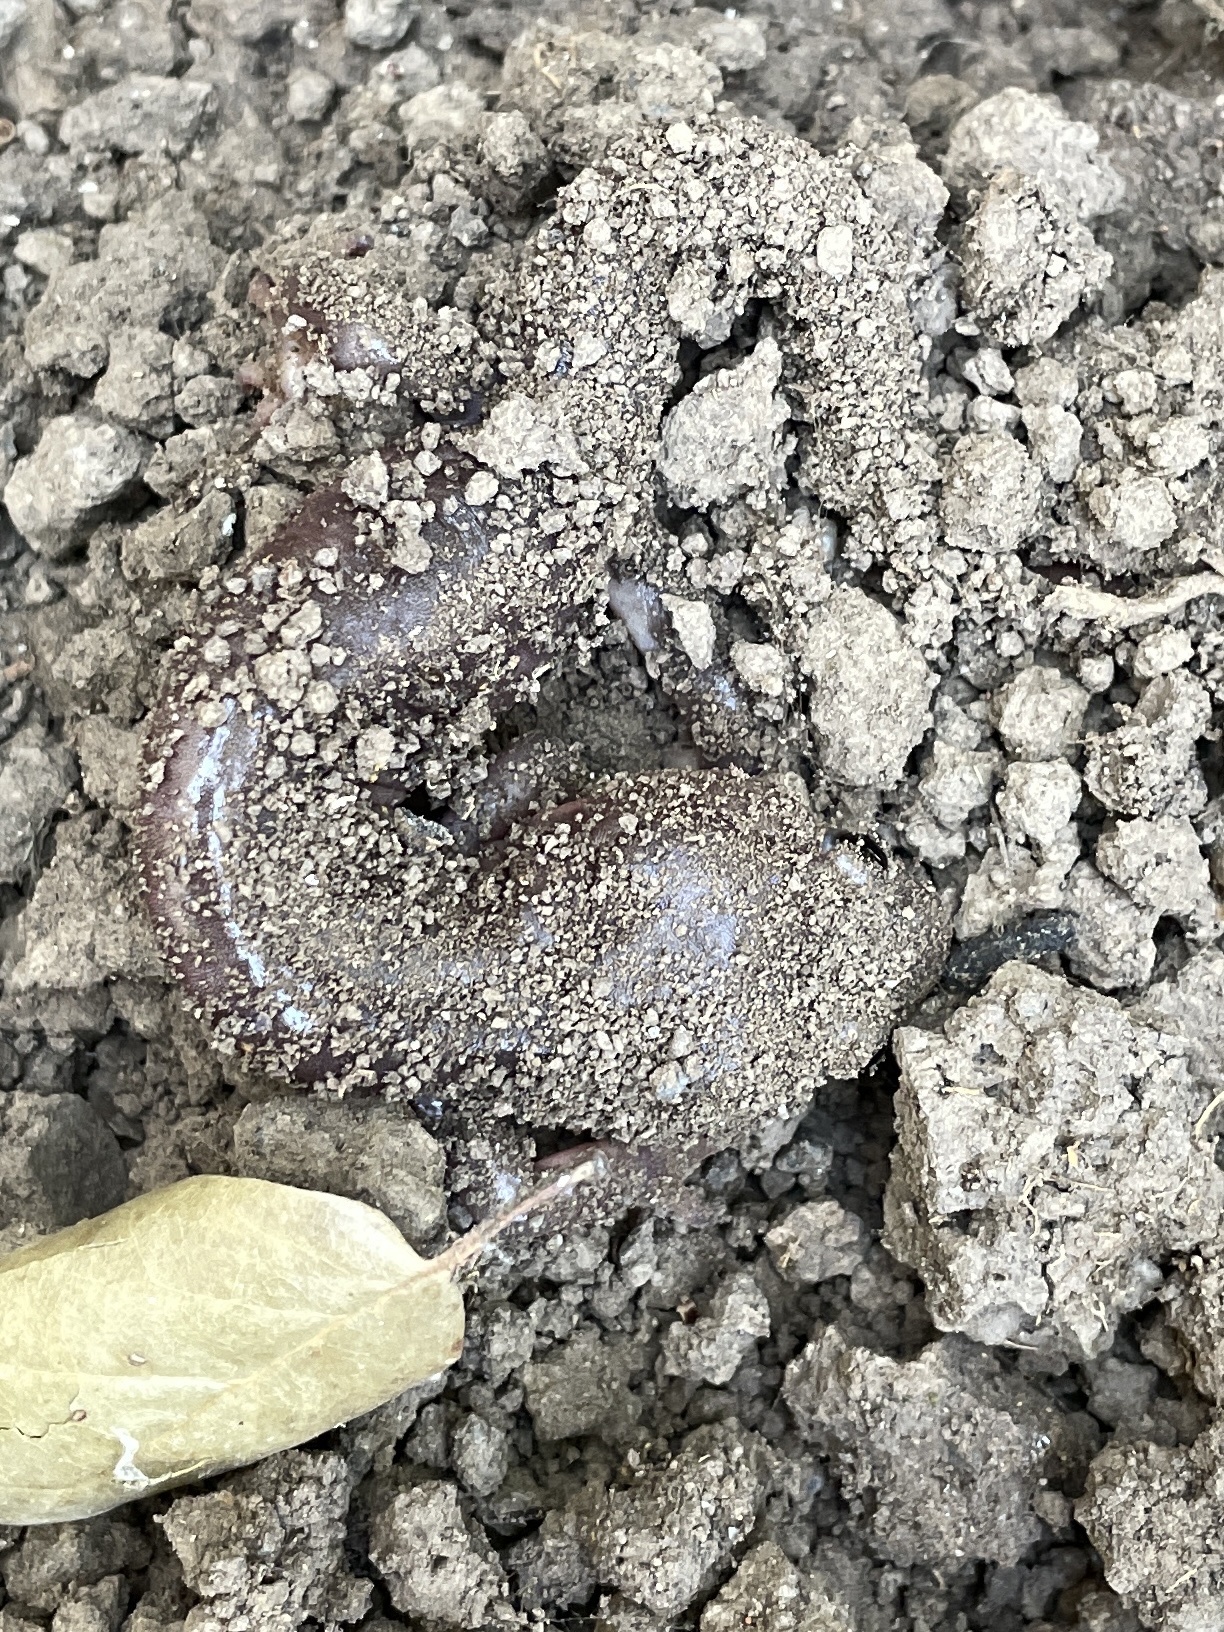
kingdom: Animalia
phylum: Chordata
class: Amphibia
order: Caudata
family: Plethodontidae
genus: Aneides
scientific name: Aneides lugubris
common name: Arboreal salamander
